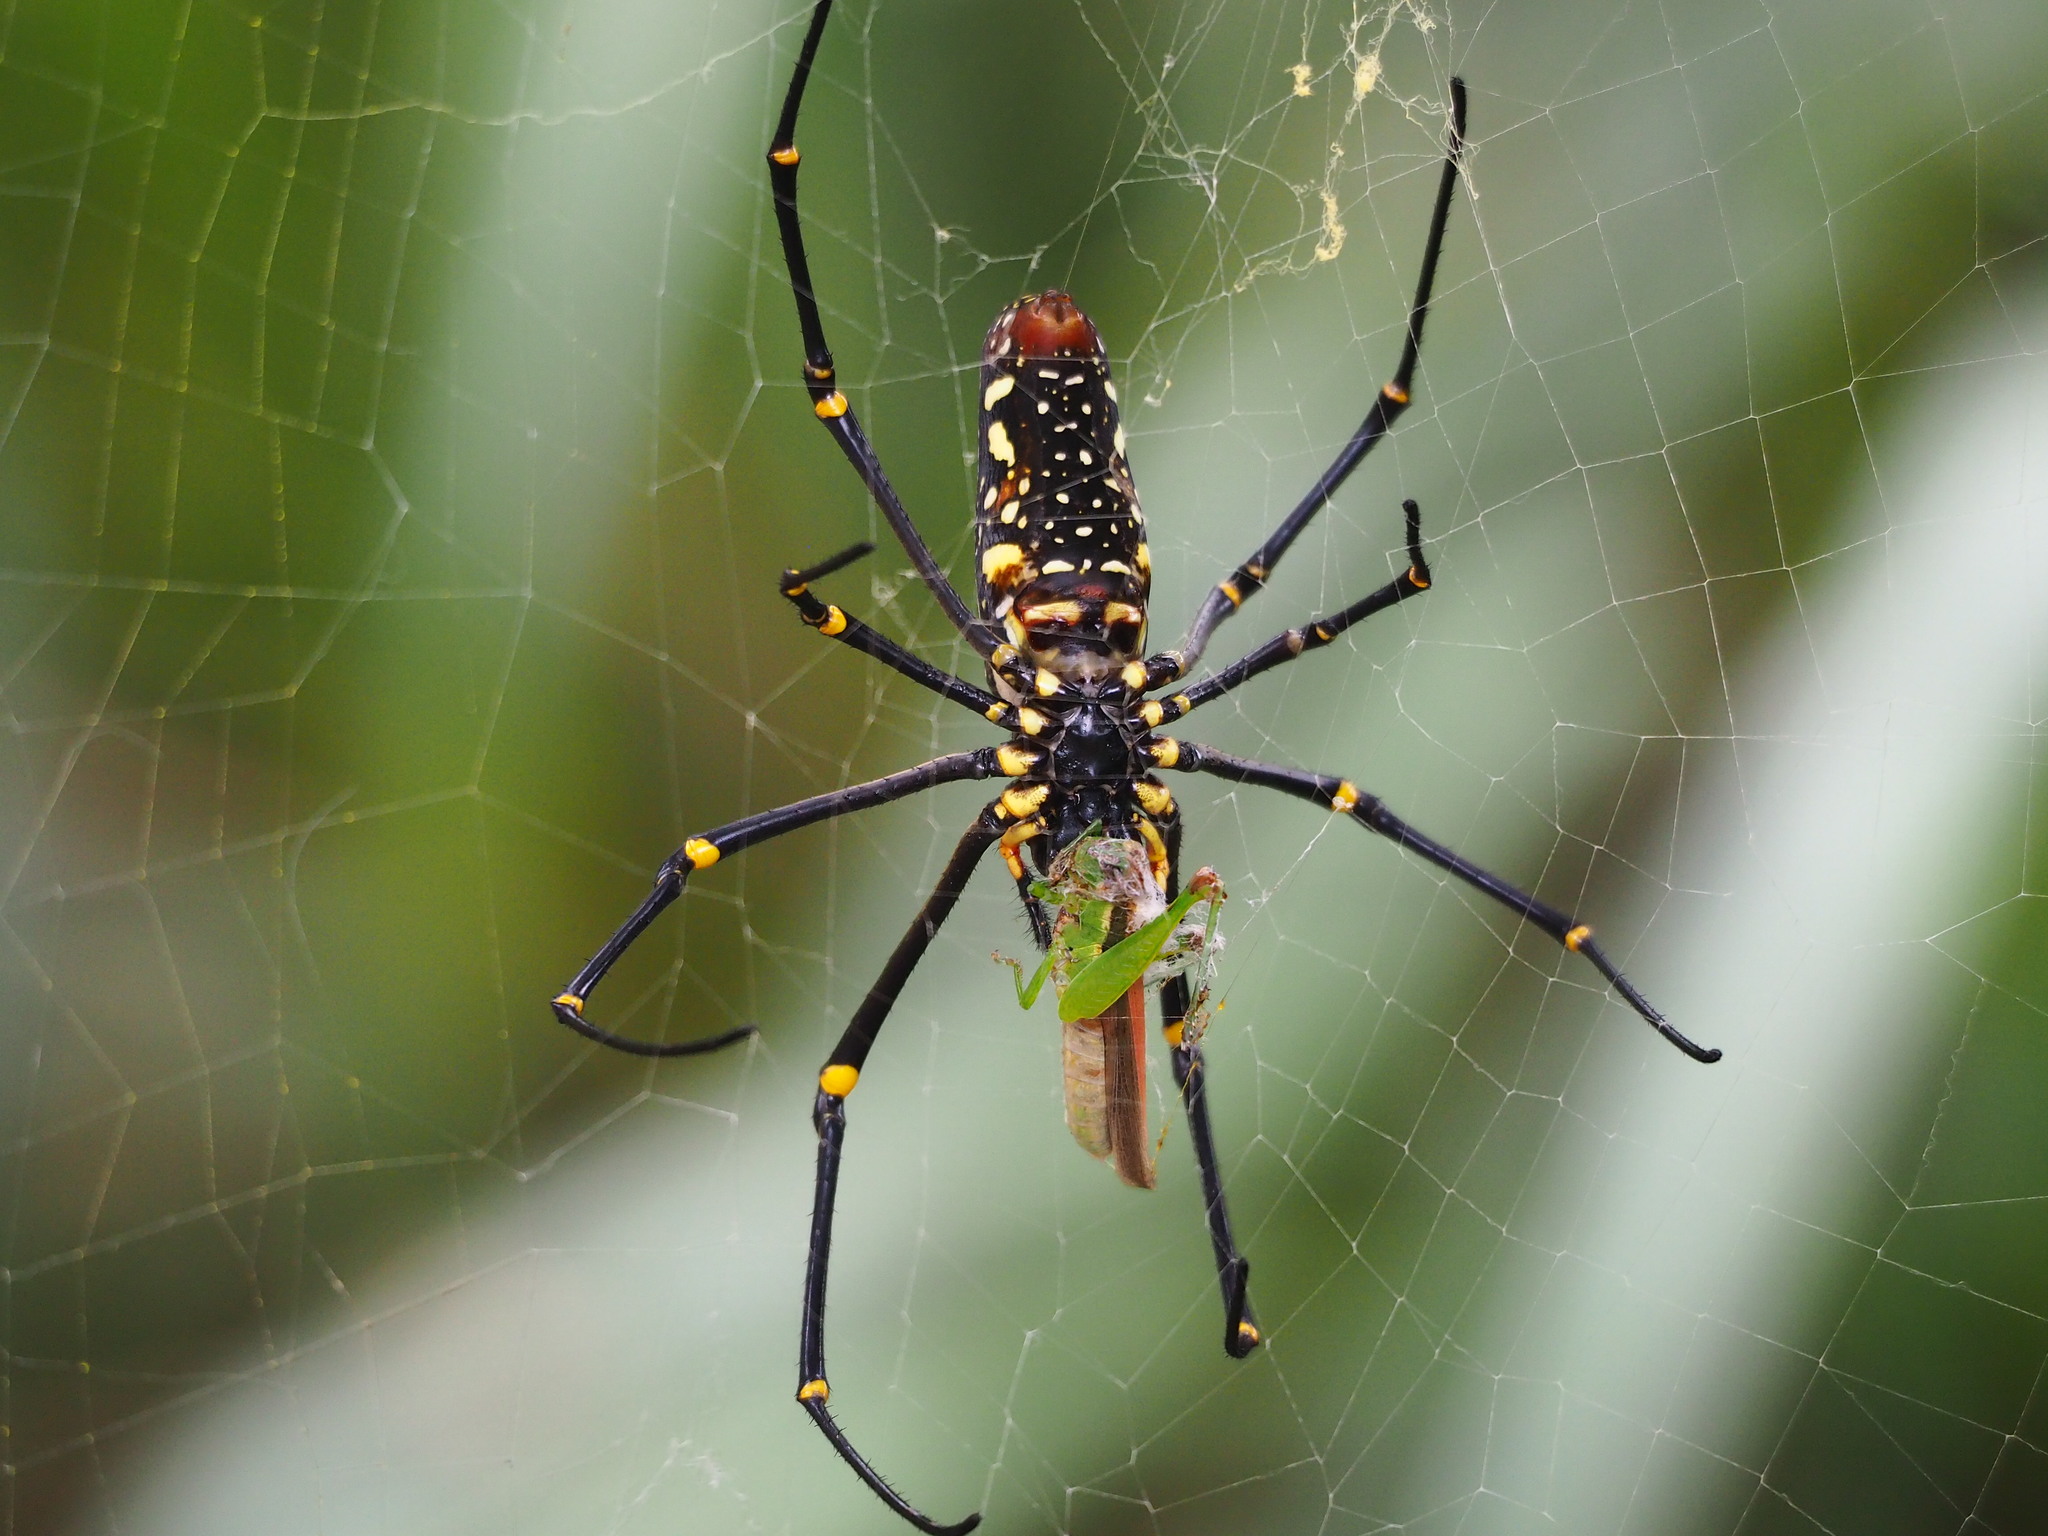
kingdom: Animalia
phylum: Arthropoda
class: Arachnida
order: Araneae
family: Araneidae
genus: Nephila
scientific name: Nephila pilipes
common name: Giant golden orb weaver
